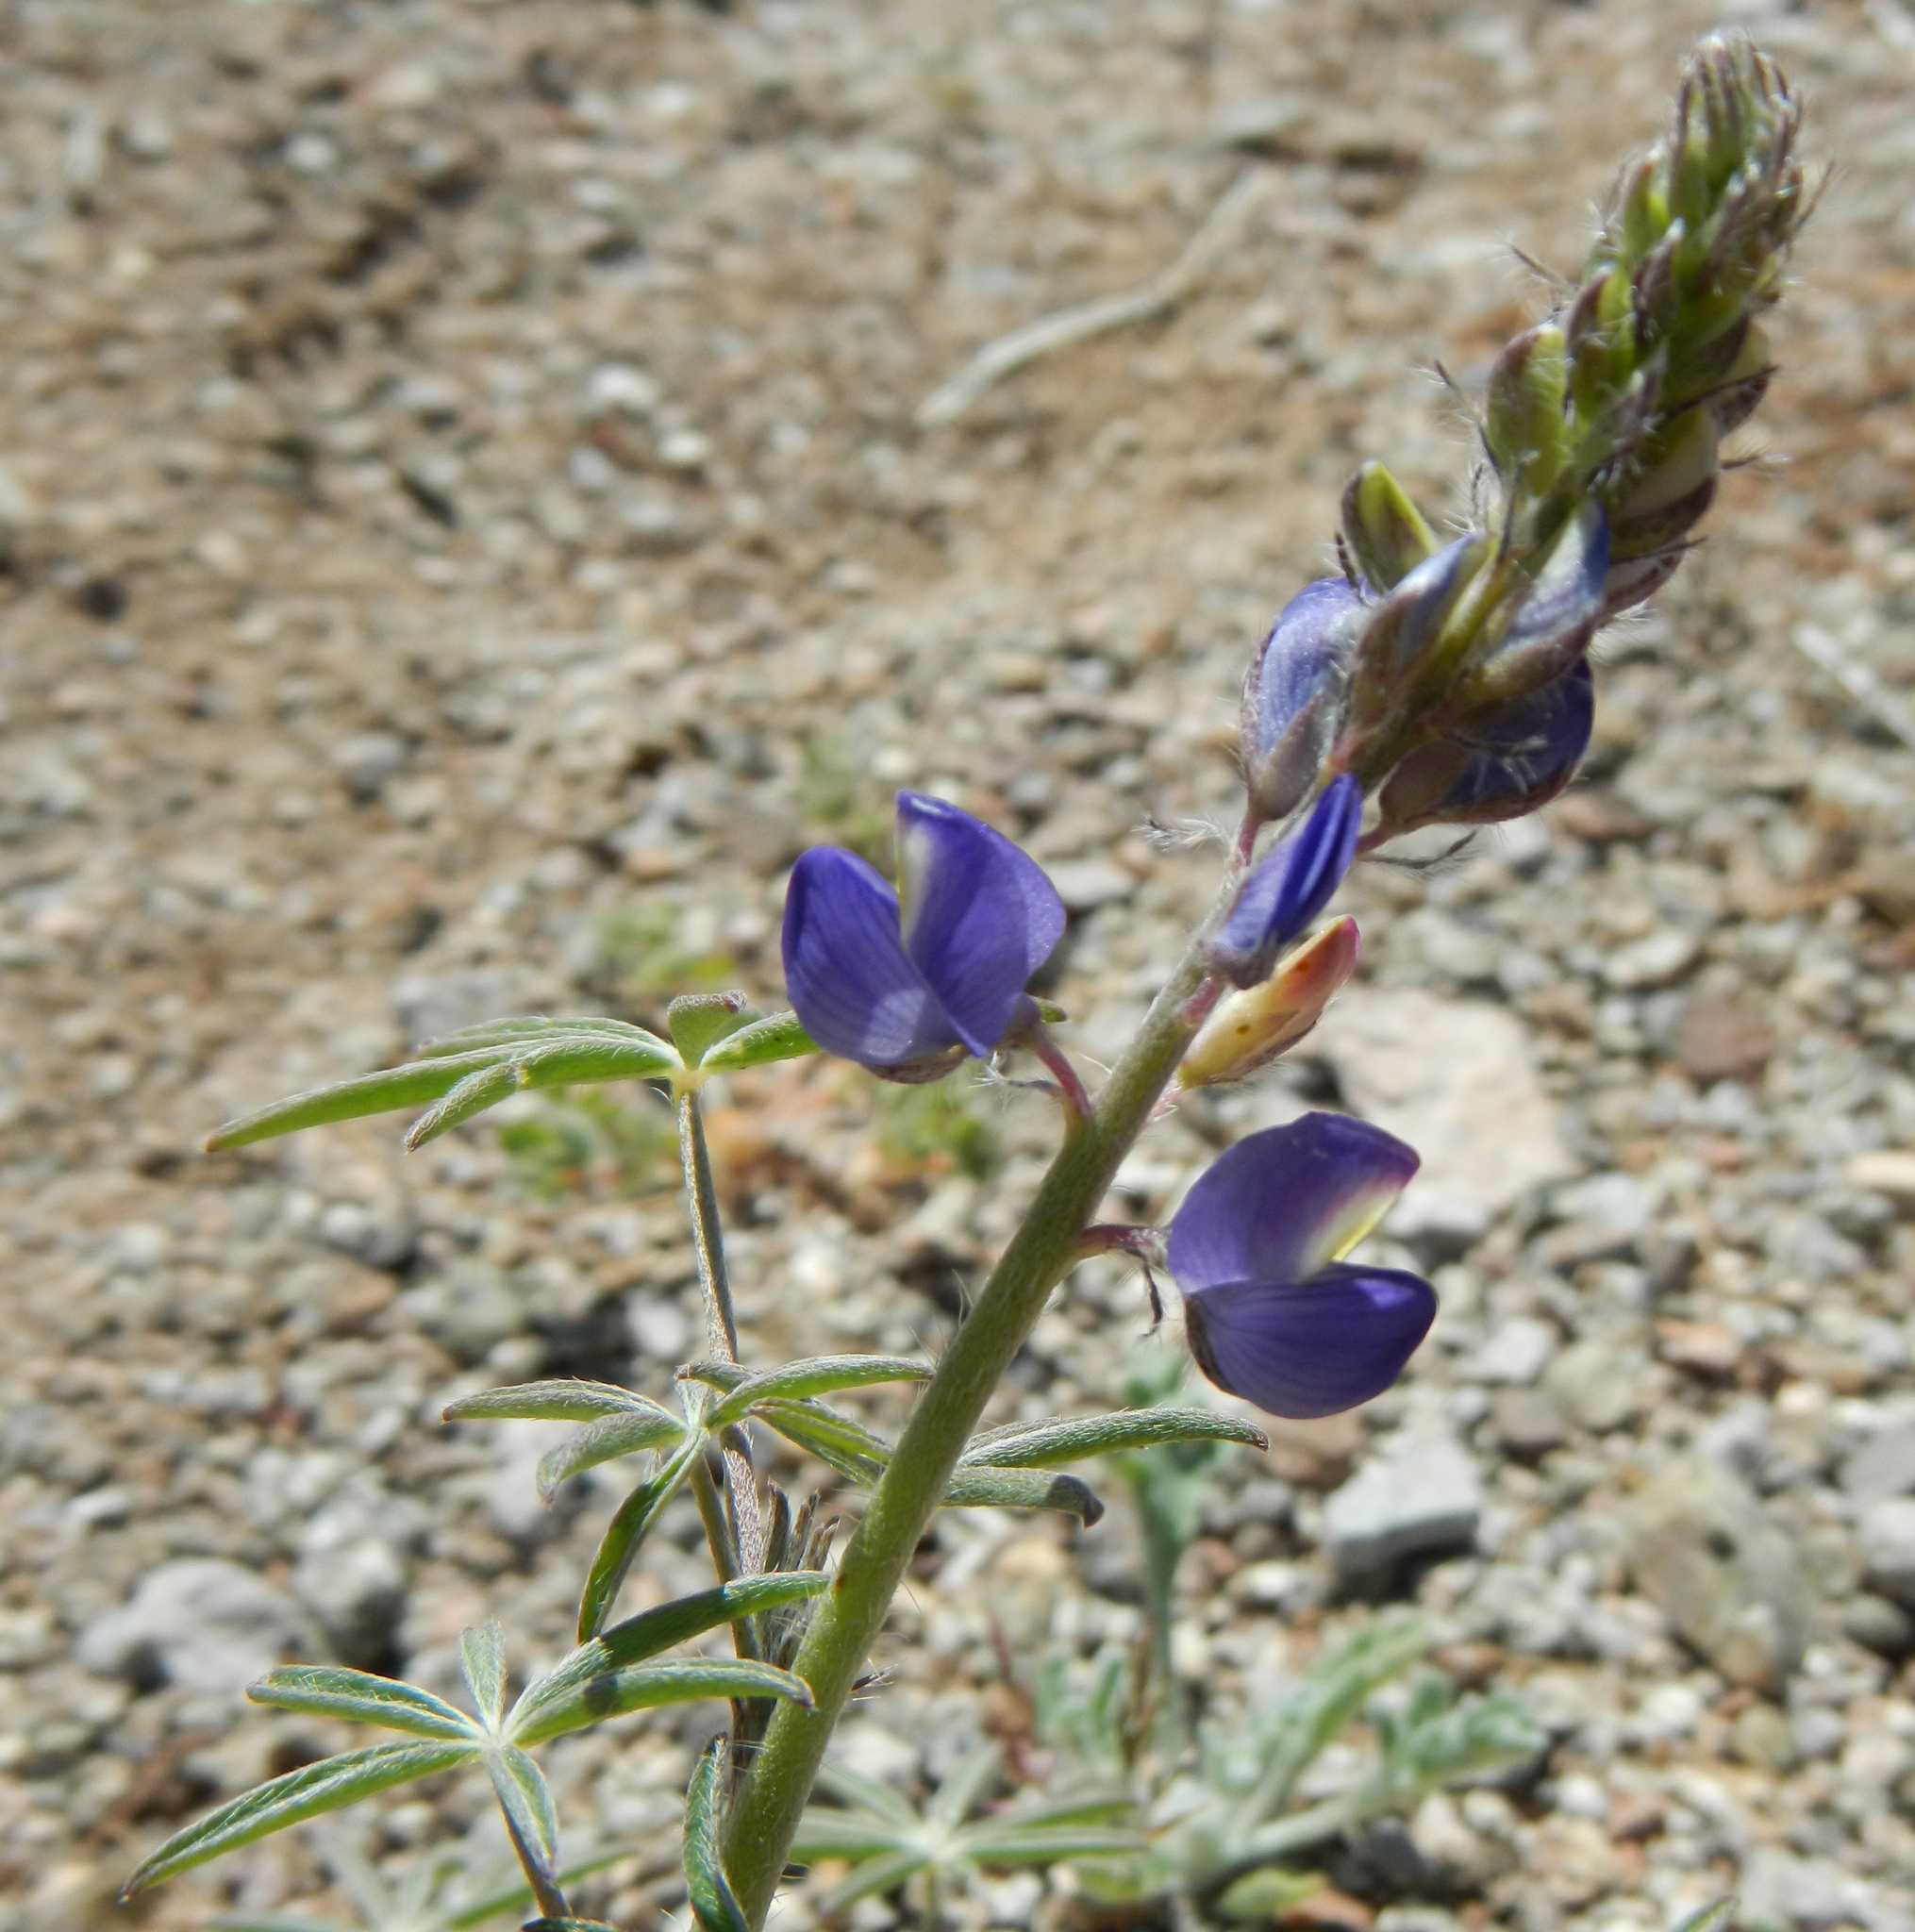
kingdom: Plantae
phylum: Tracheophyta
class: Magnoliopsida
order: Fabales
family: Fabaceae
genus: Lupinus
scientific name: Lupinus sparsiflorus
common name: Coulter's lupine
